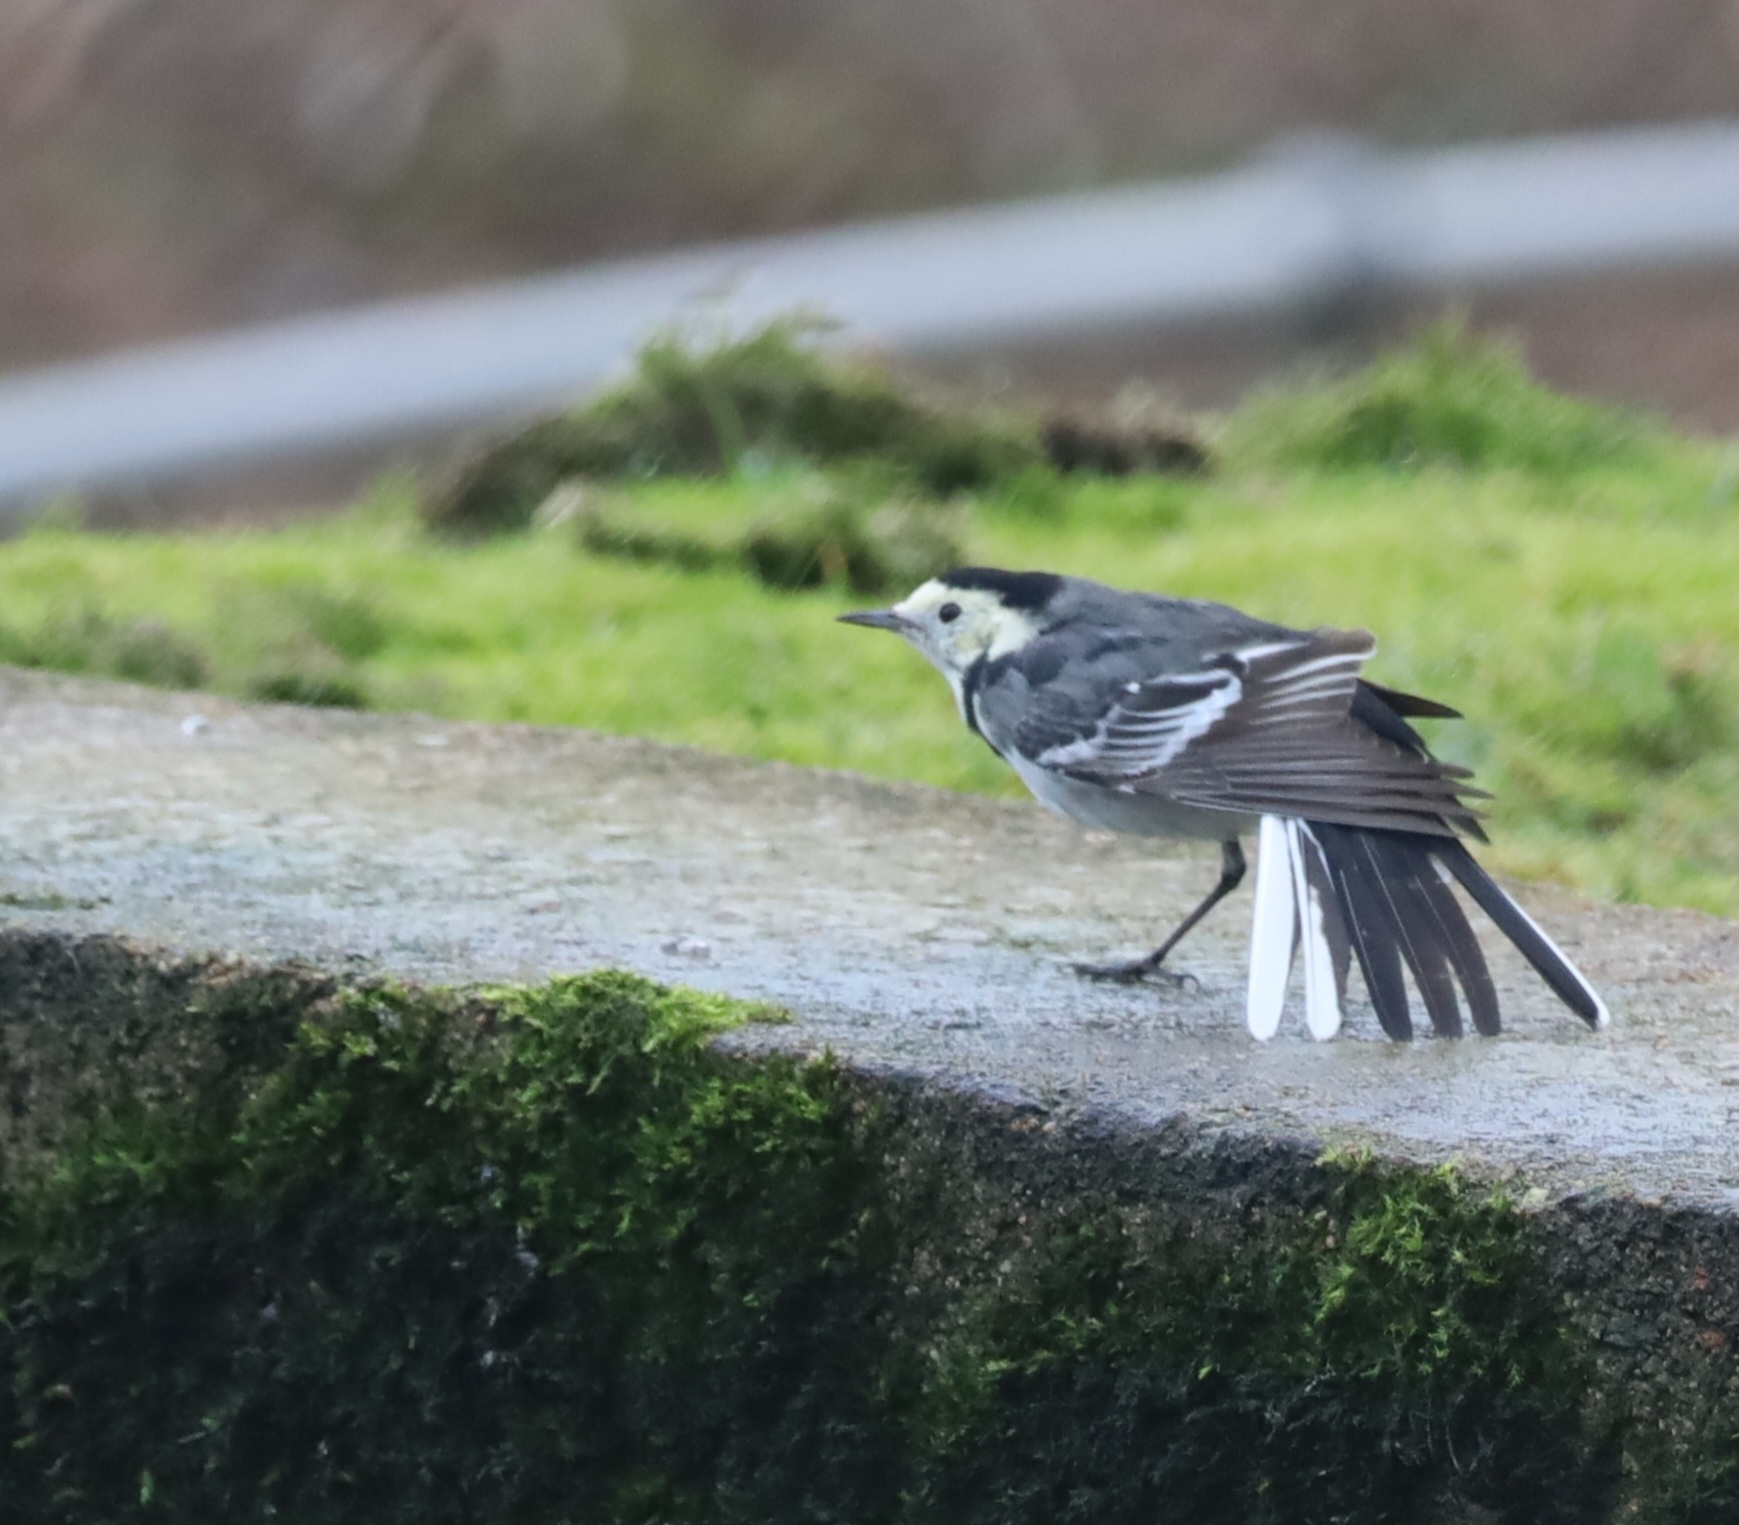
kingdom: Animalia
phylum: Chordata
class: Aves
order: Passeriformes
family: Motacillidae
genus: Motacilla
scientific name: Motacilla alba
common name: White wagtail
